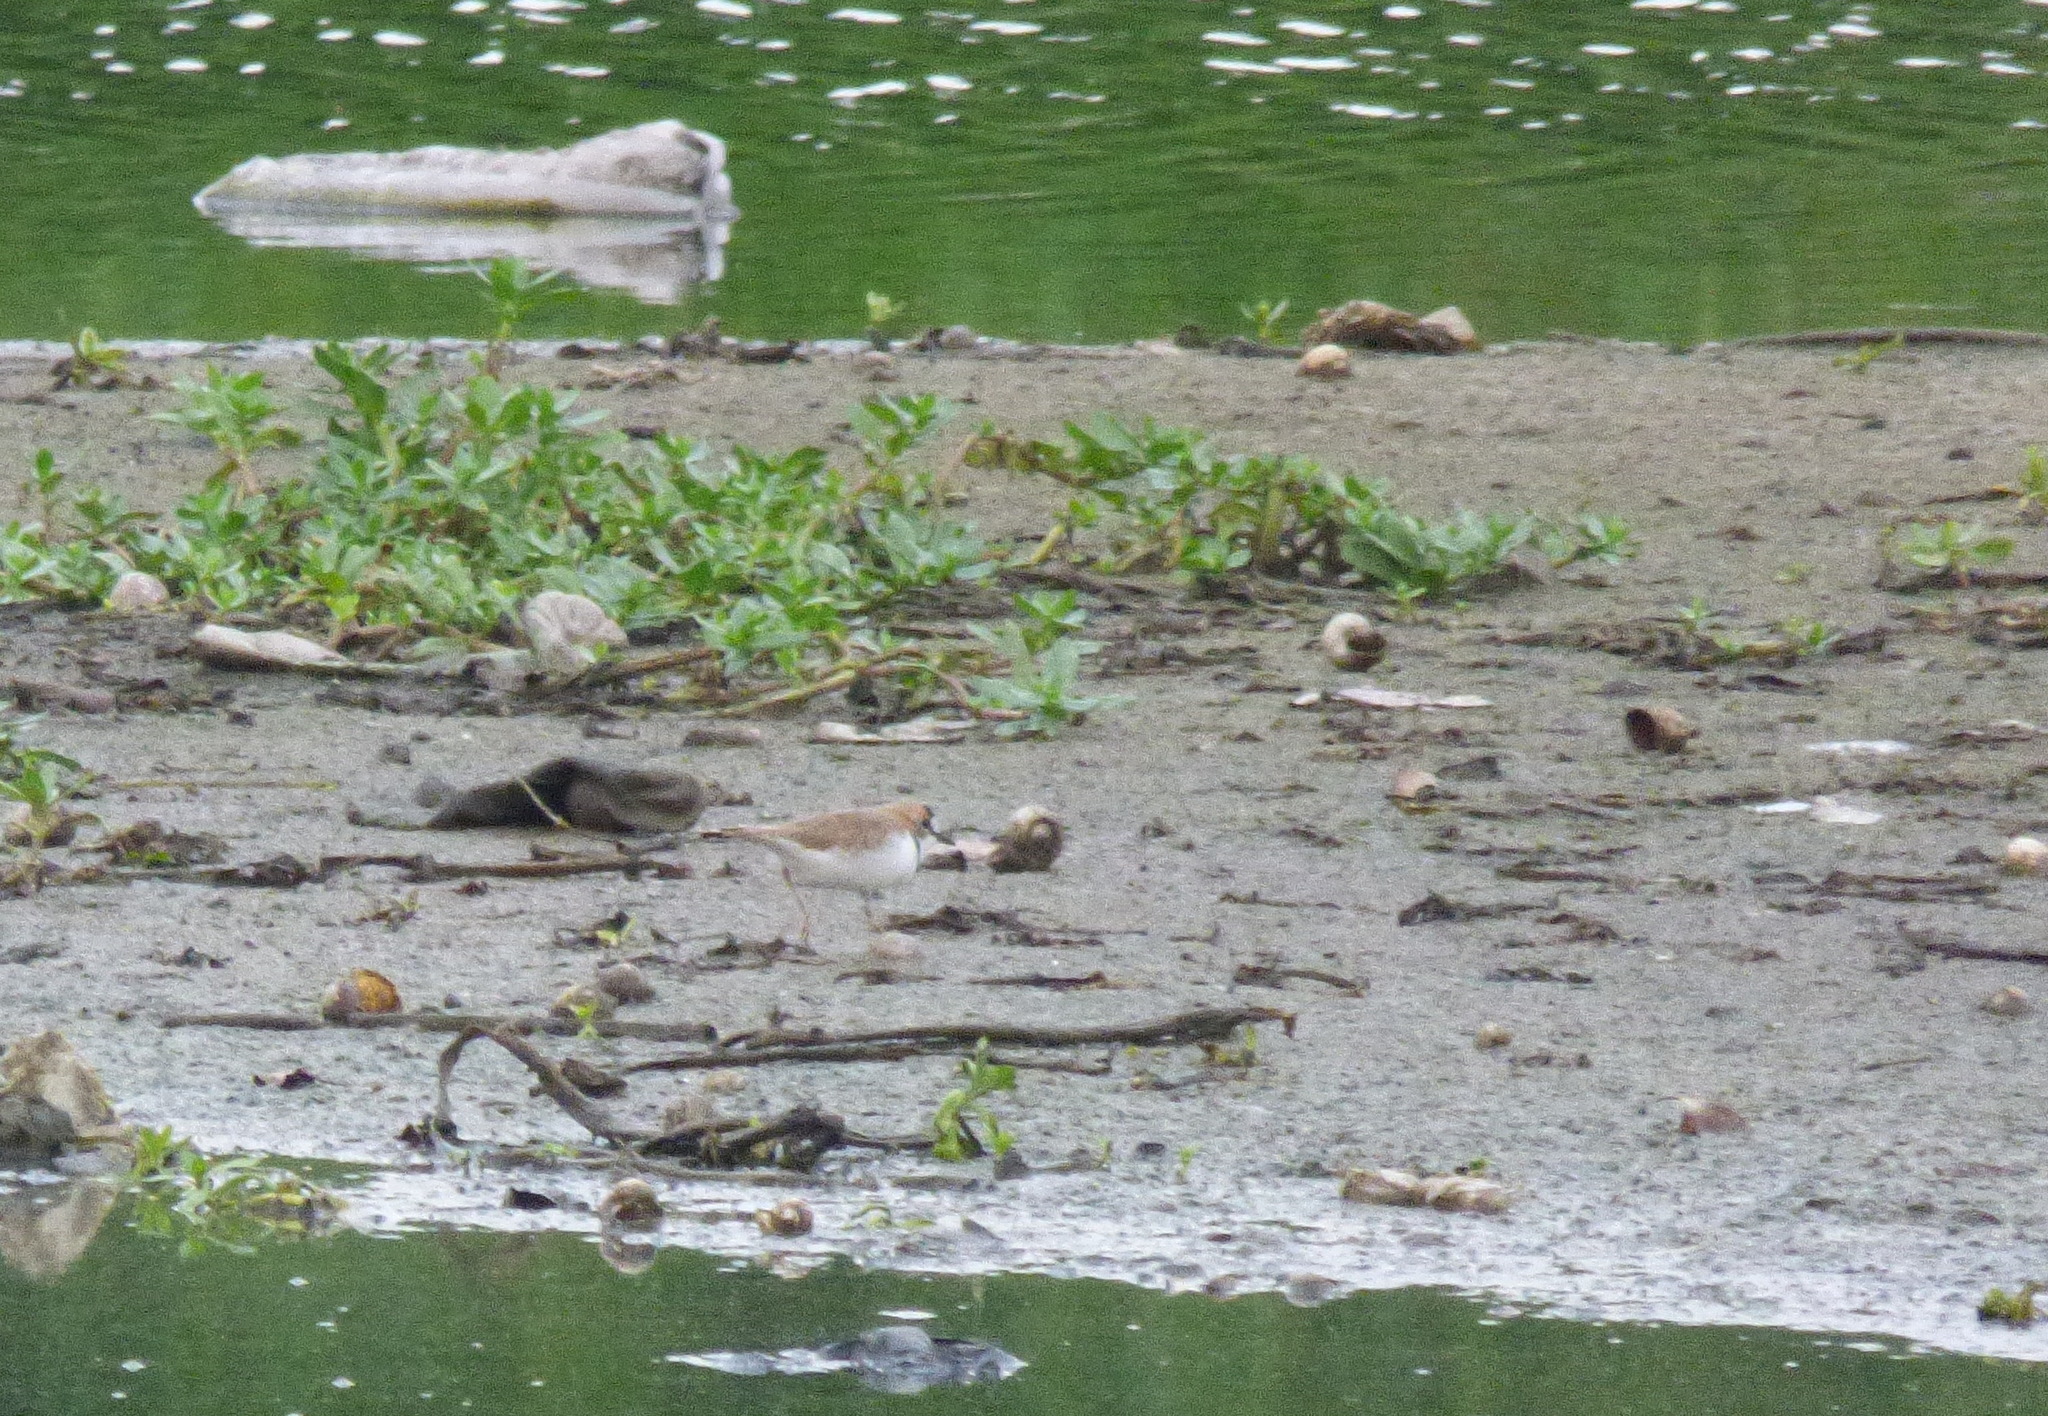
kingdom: Animalia
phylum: Chordata
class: Aves
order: Charadriiformes
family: Charadriidae
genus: Anarhynchus
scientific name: Anarhynchus
